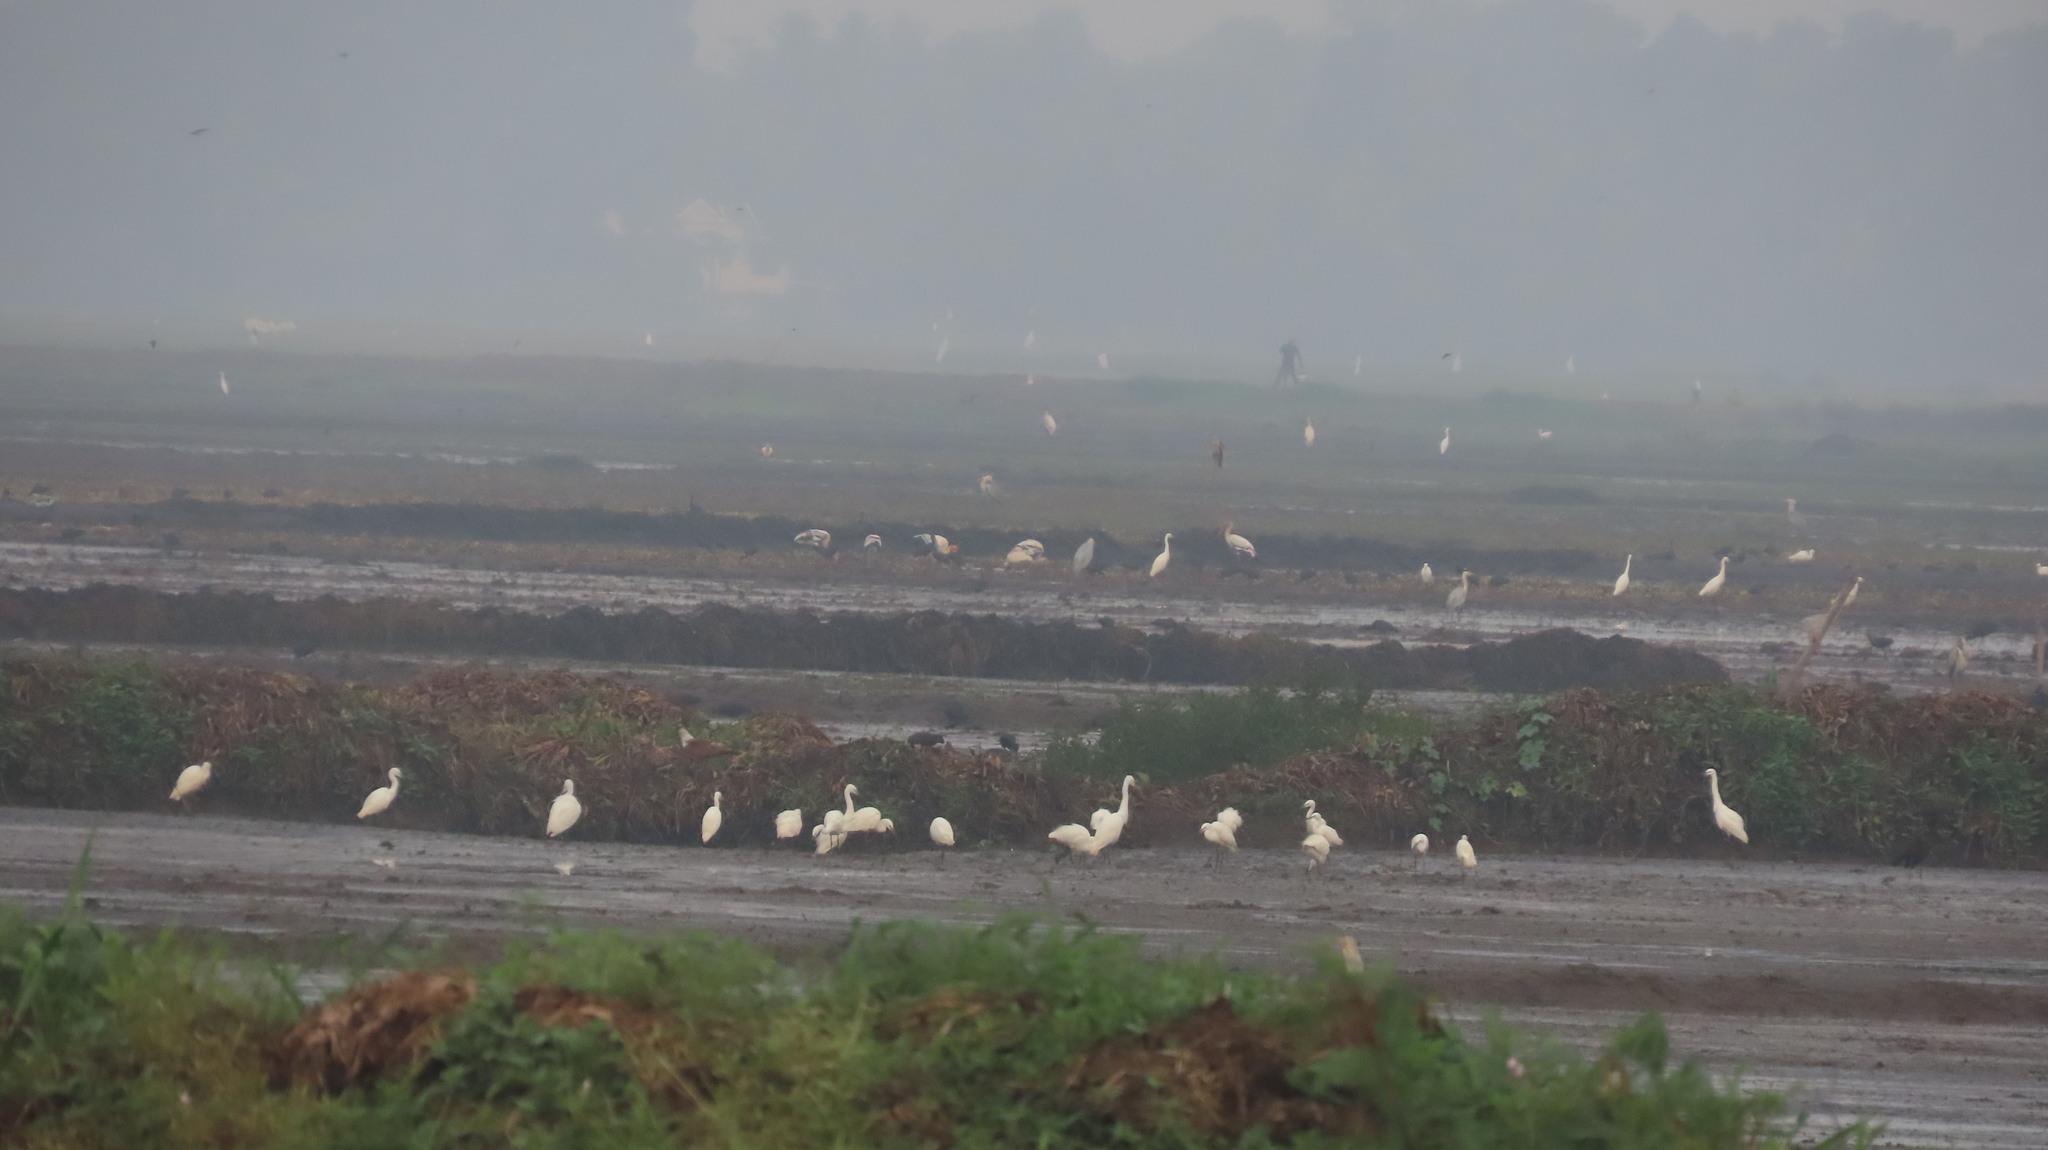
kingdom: Animalia
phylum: Chordata
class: Aves
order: Pelecaniformes
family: Ardeidae
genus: Egretta
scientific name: Egretta garzetta
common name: Little egret
